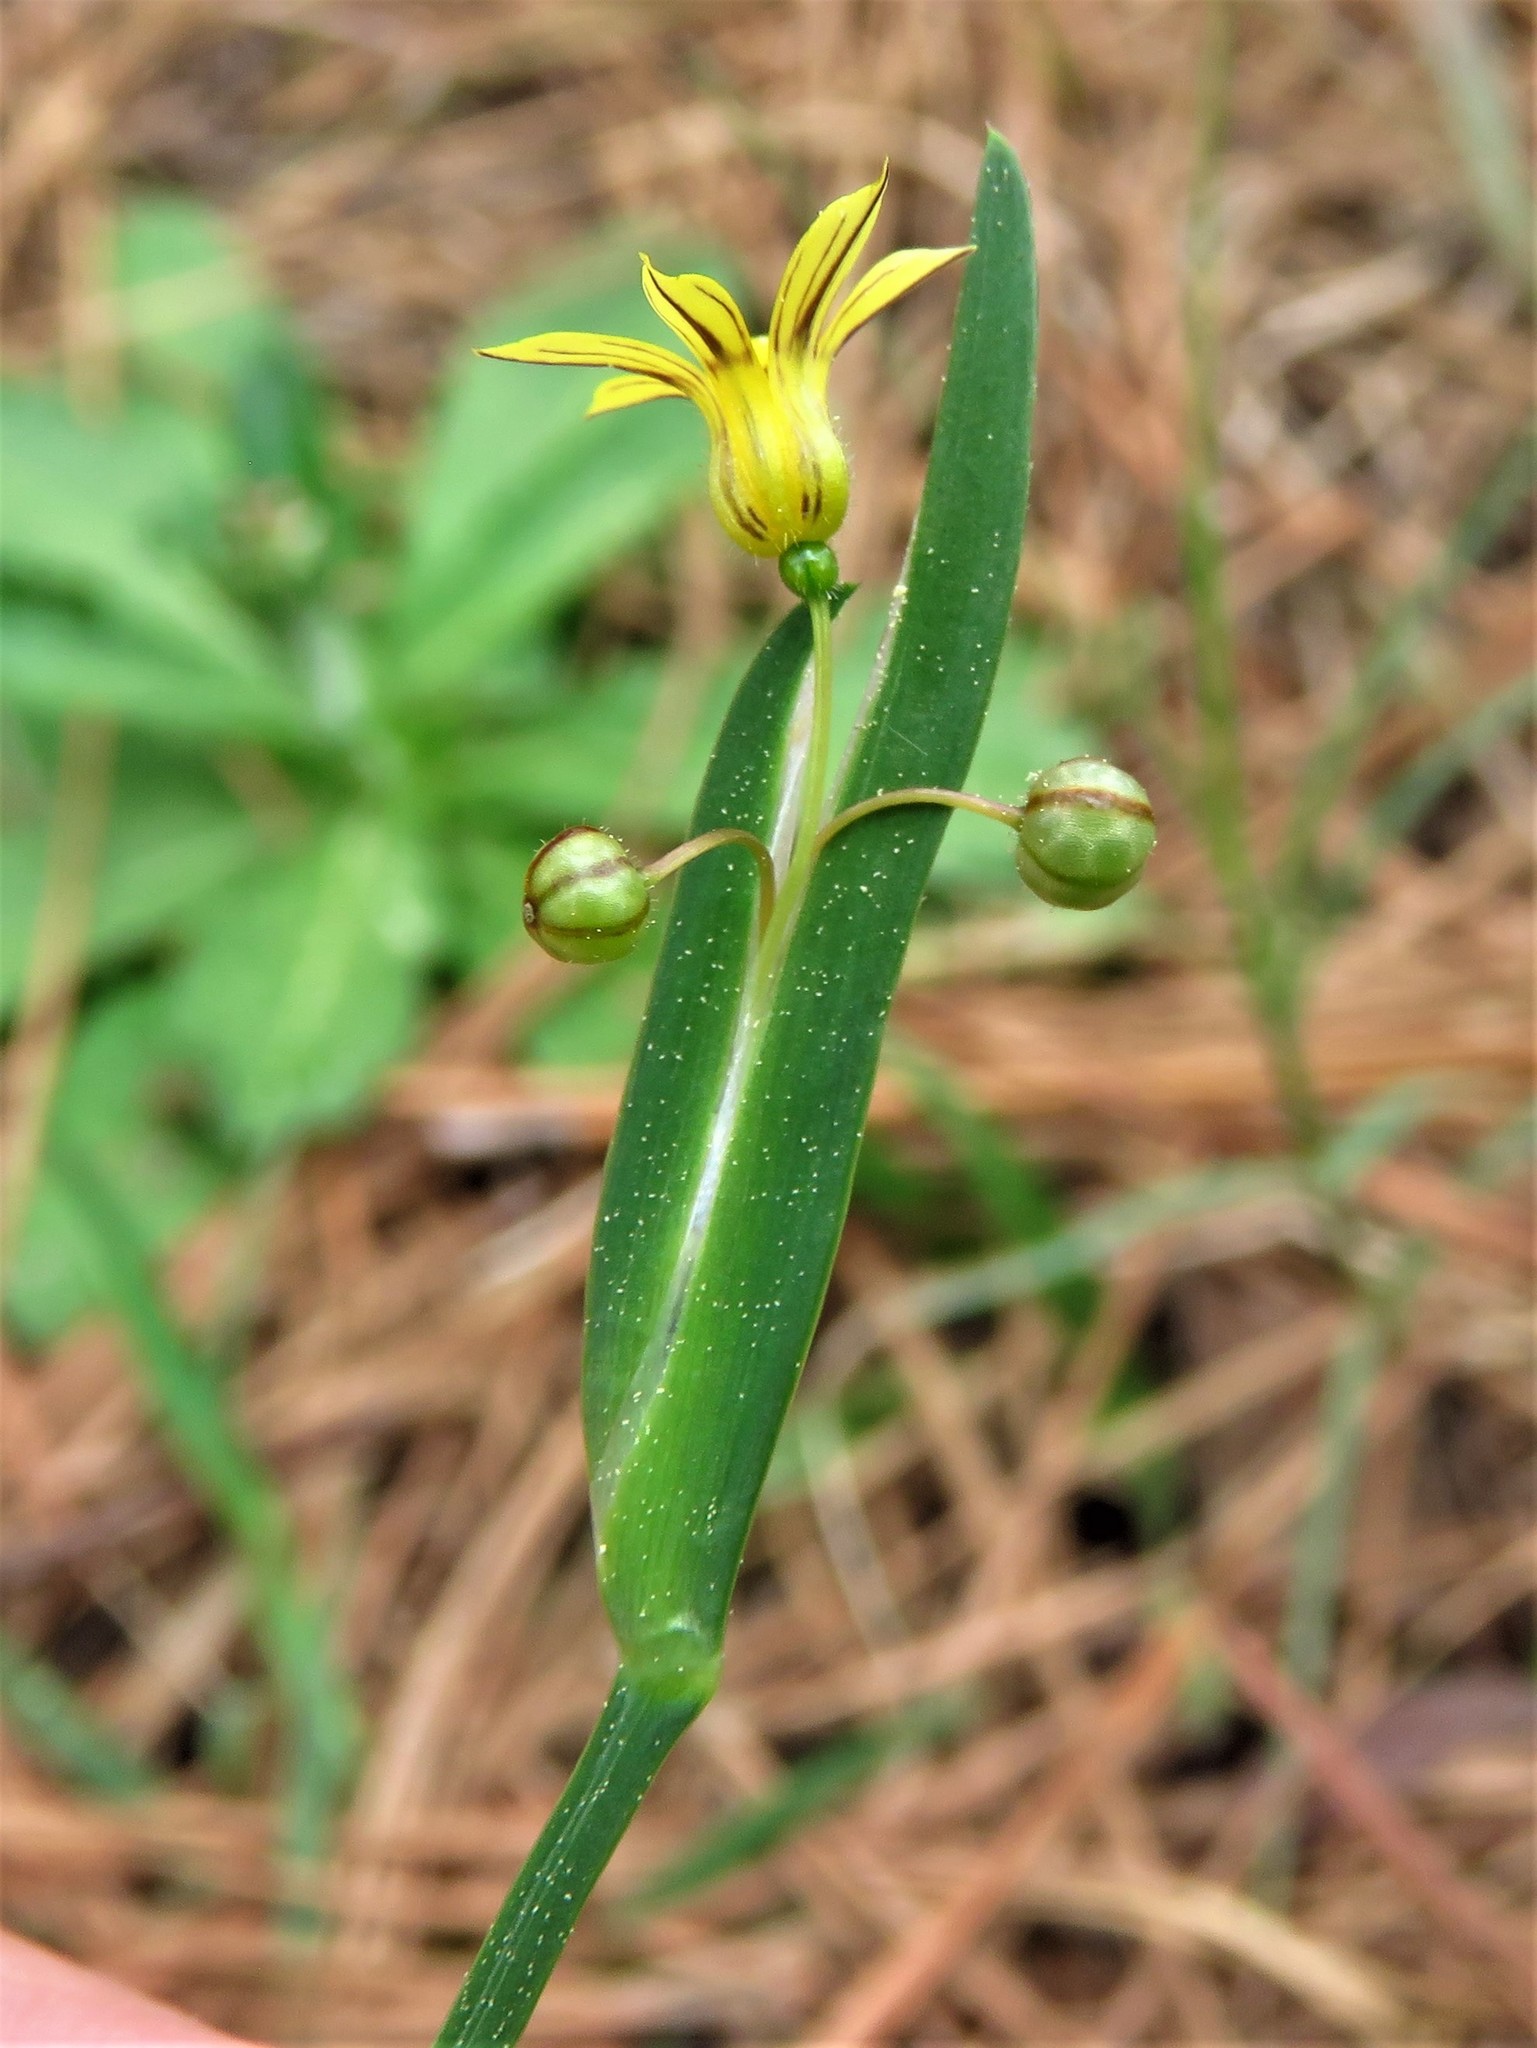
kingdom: Plantae
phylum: Tracheophyta
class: Liliopsida
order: Asparagales
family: Iridaceae
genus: Sisyrinchium
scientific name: Sisyrinchium micranthum
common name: Bermuda pigroot
